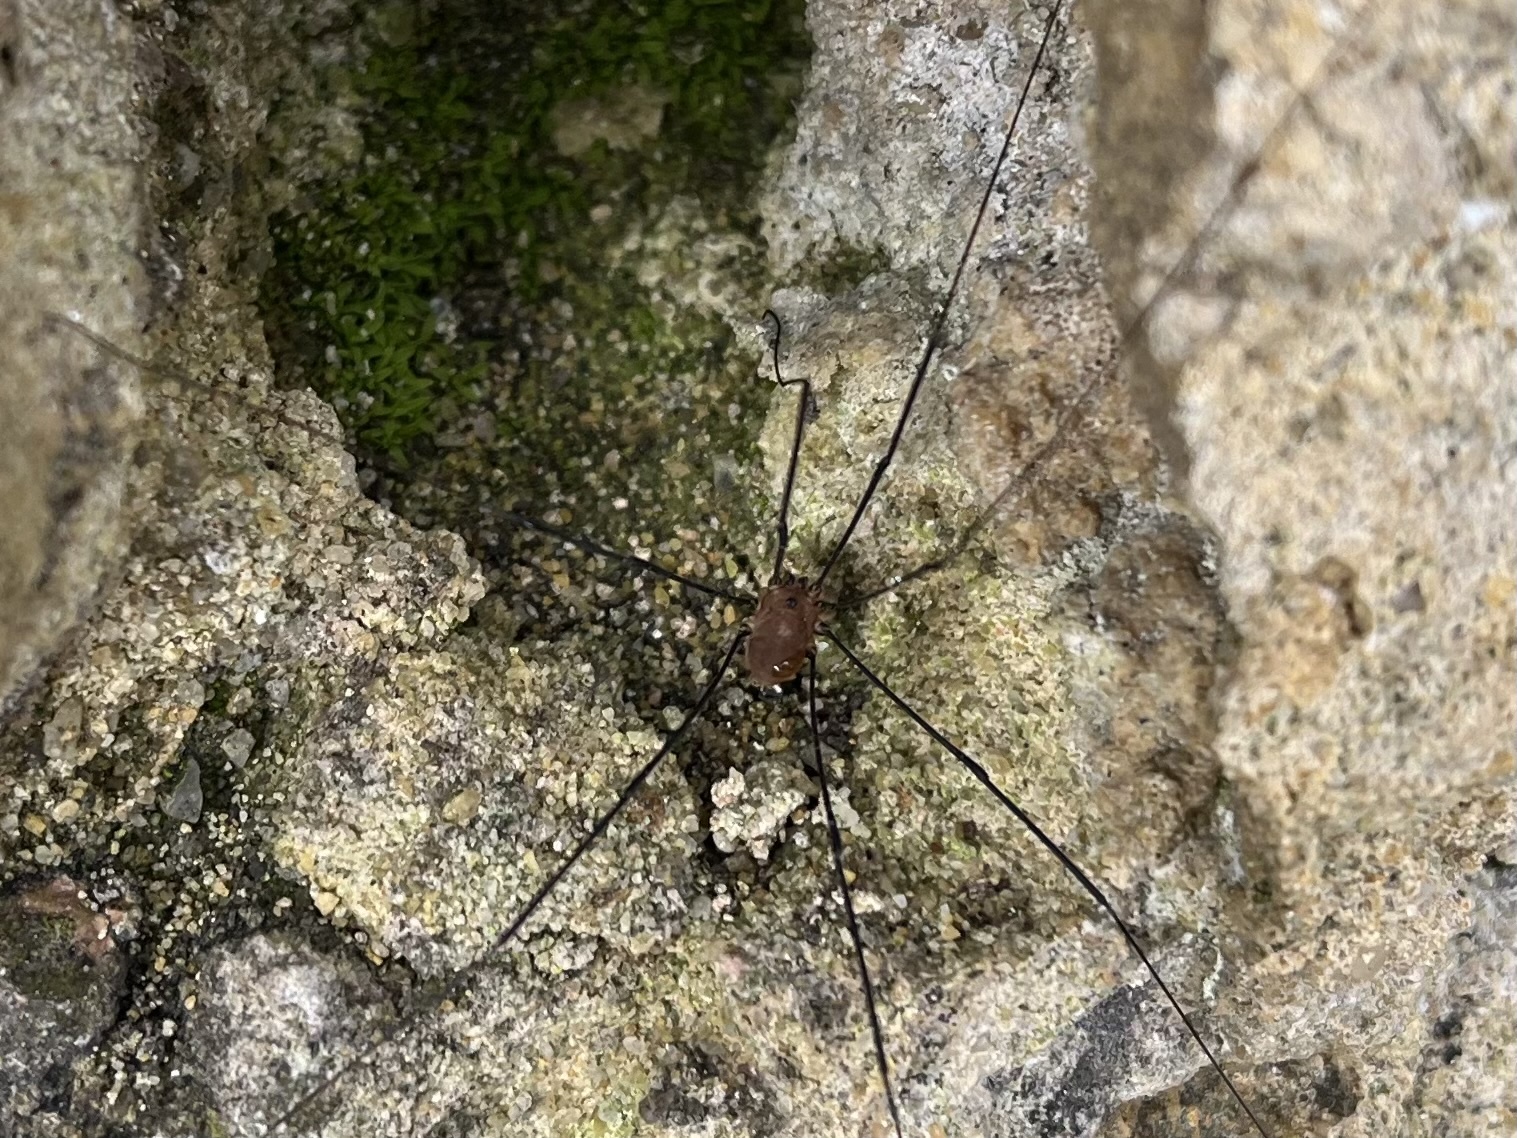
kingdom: Animalia
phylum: Arthropoda
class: Arachnida
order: Opiliones
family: Sclerosomatidae
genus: Leiobunum
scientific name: Leiobunum rotundum
